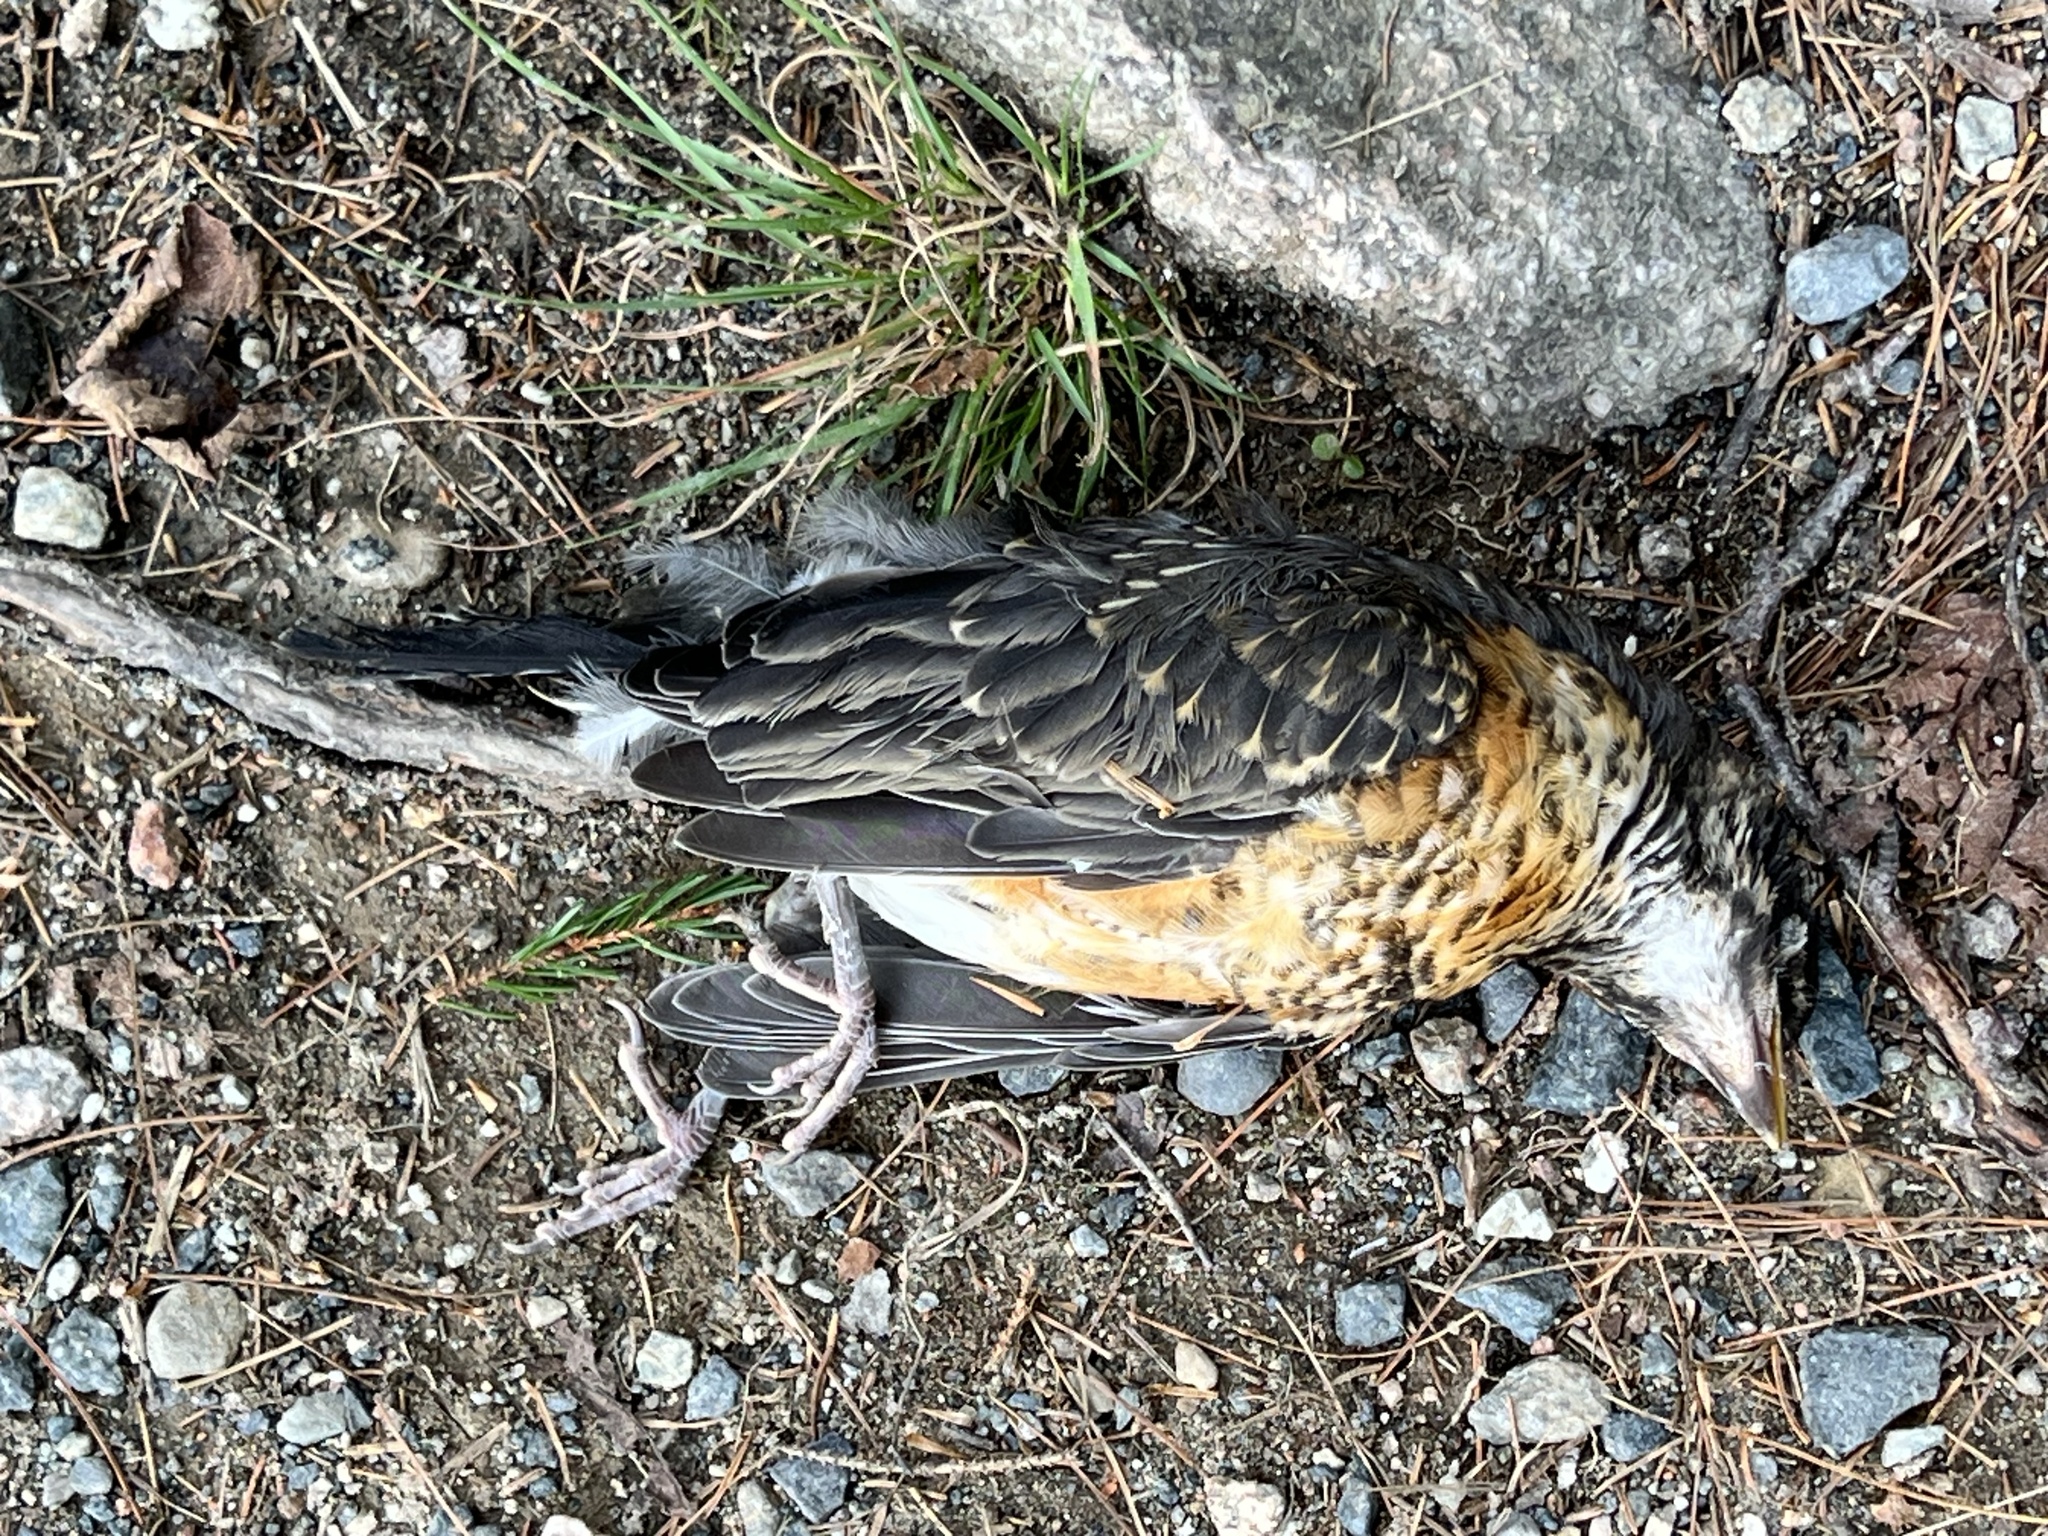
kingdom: Animalia
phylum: Chordata
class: Aves
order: Passeriformes
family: Turdidae
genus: Turdus
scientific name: Turdus migratorius
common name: American robin
